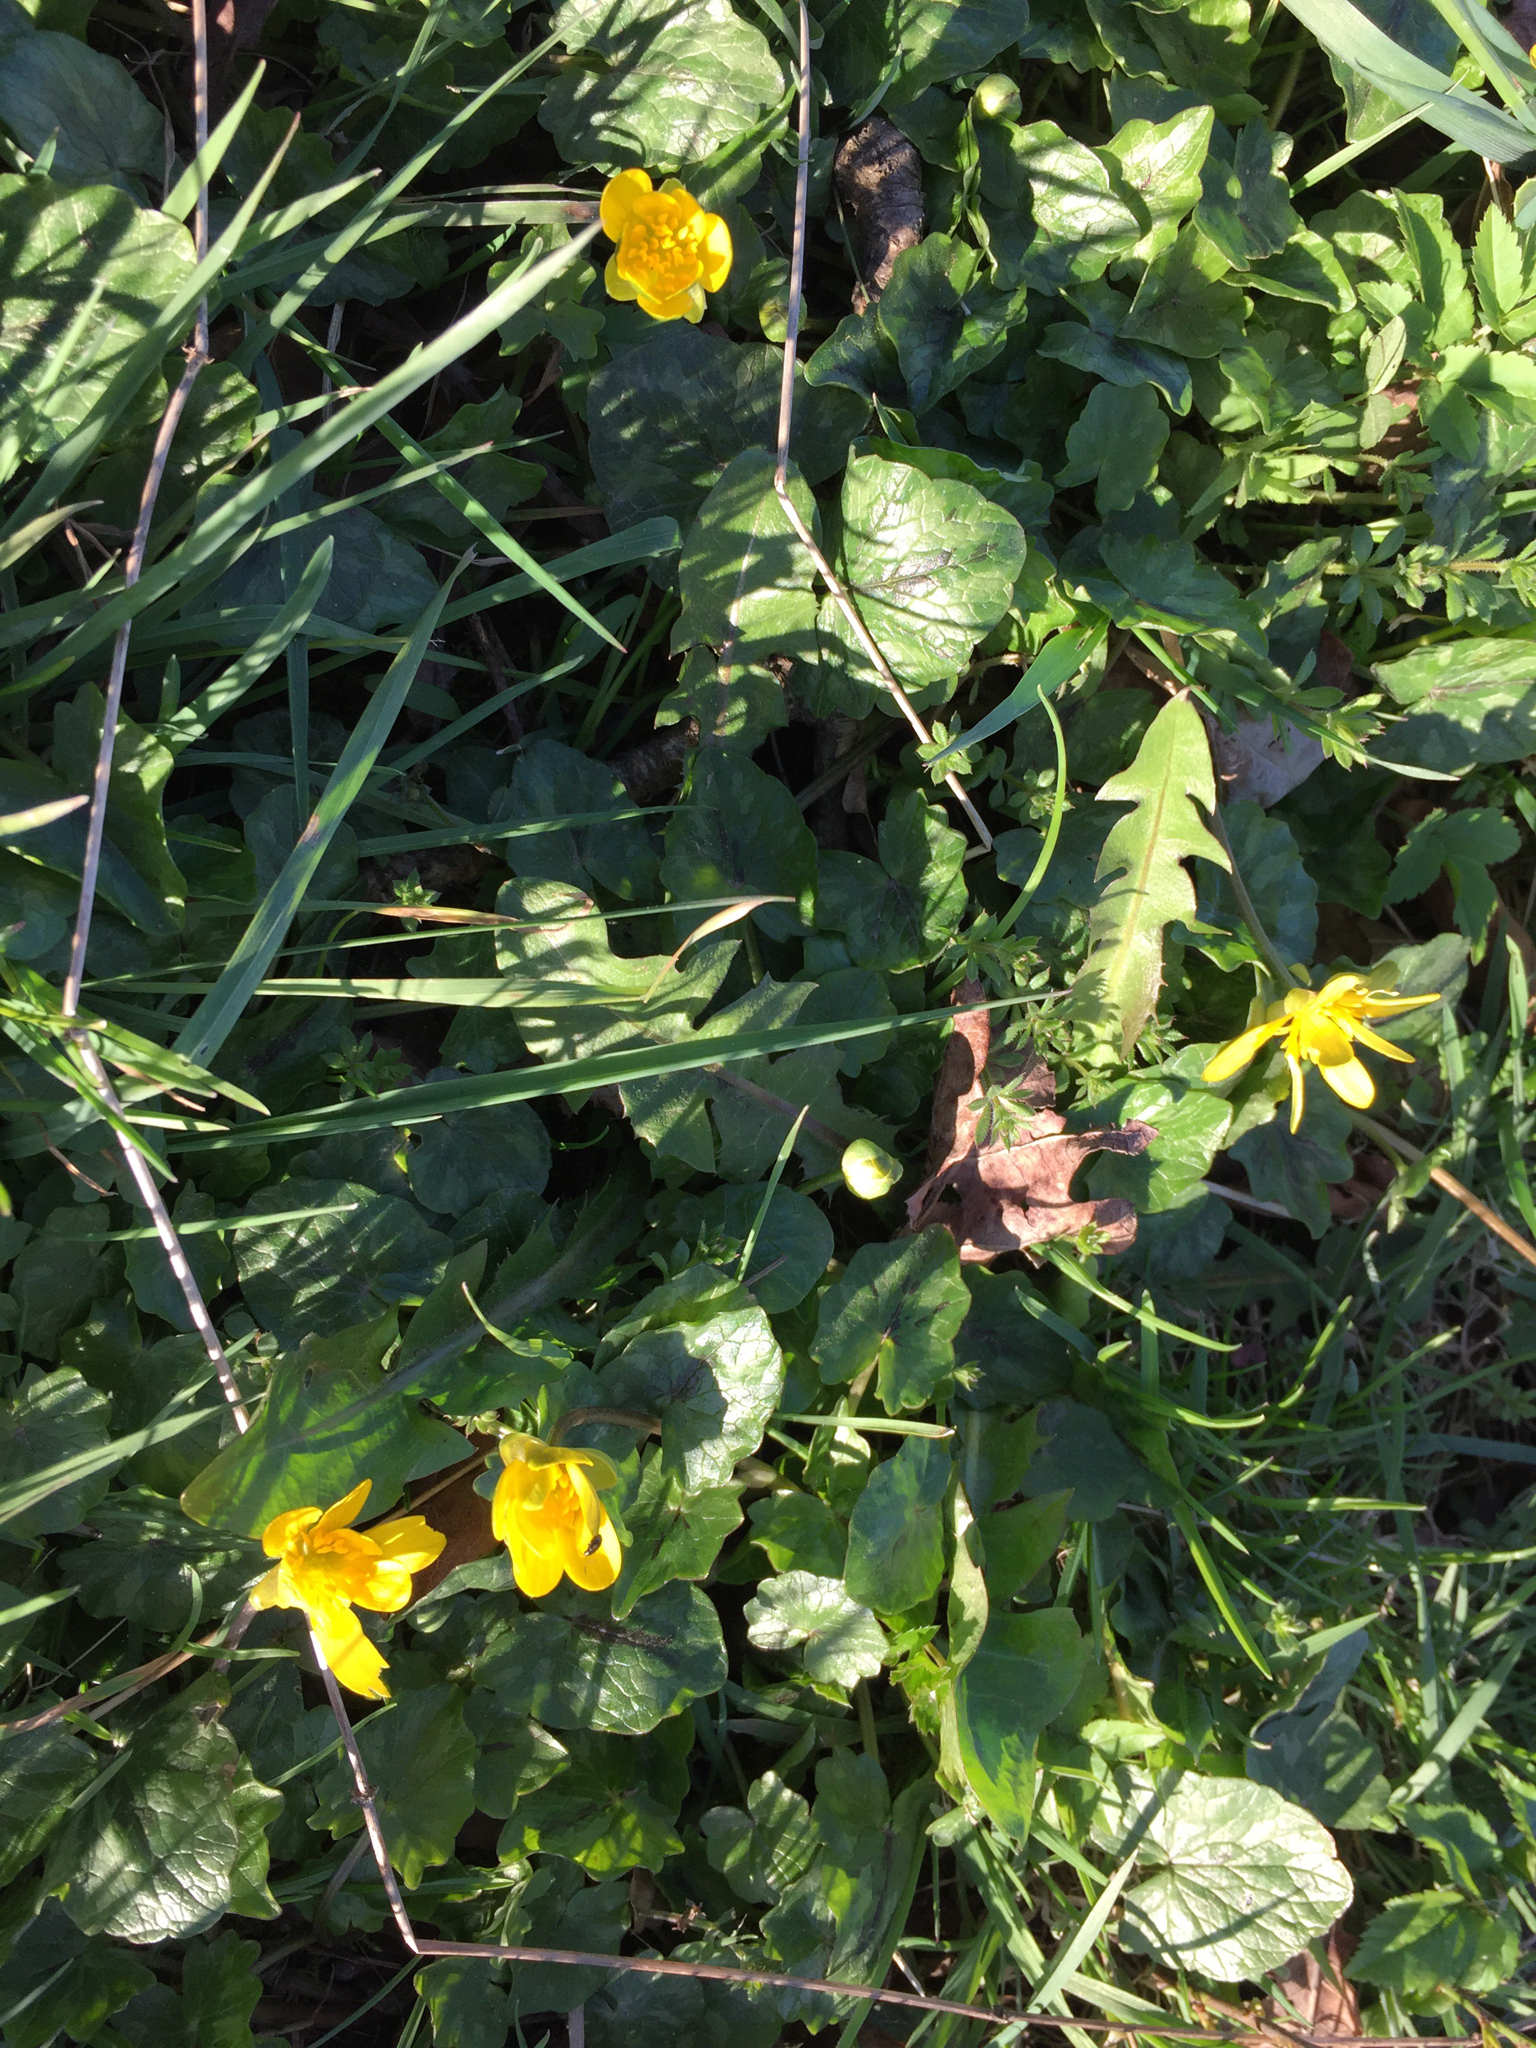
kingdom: Plantae
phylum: Tracheophyta
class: Magnoliopsida
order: Ranunculales
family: Ranunculaceae
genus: Ficaria
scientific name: Ficaria verna
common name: Lesser celandine
